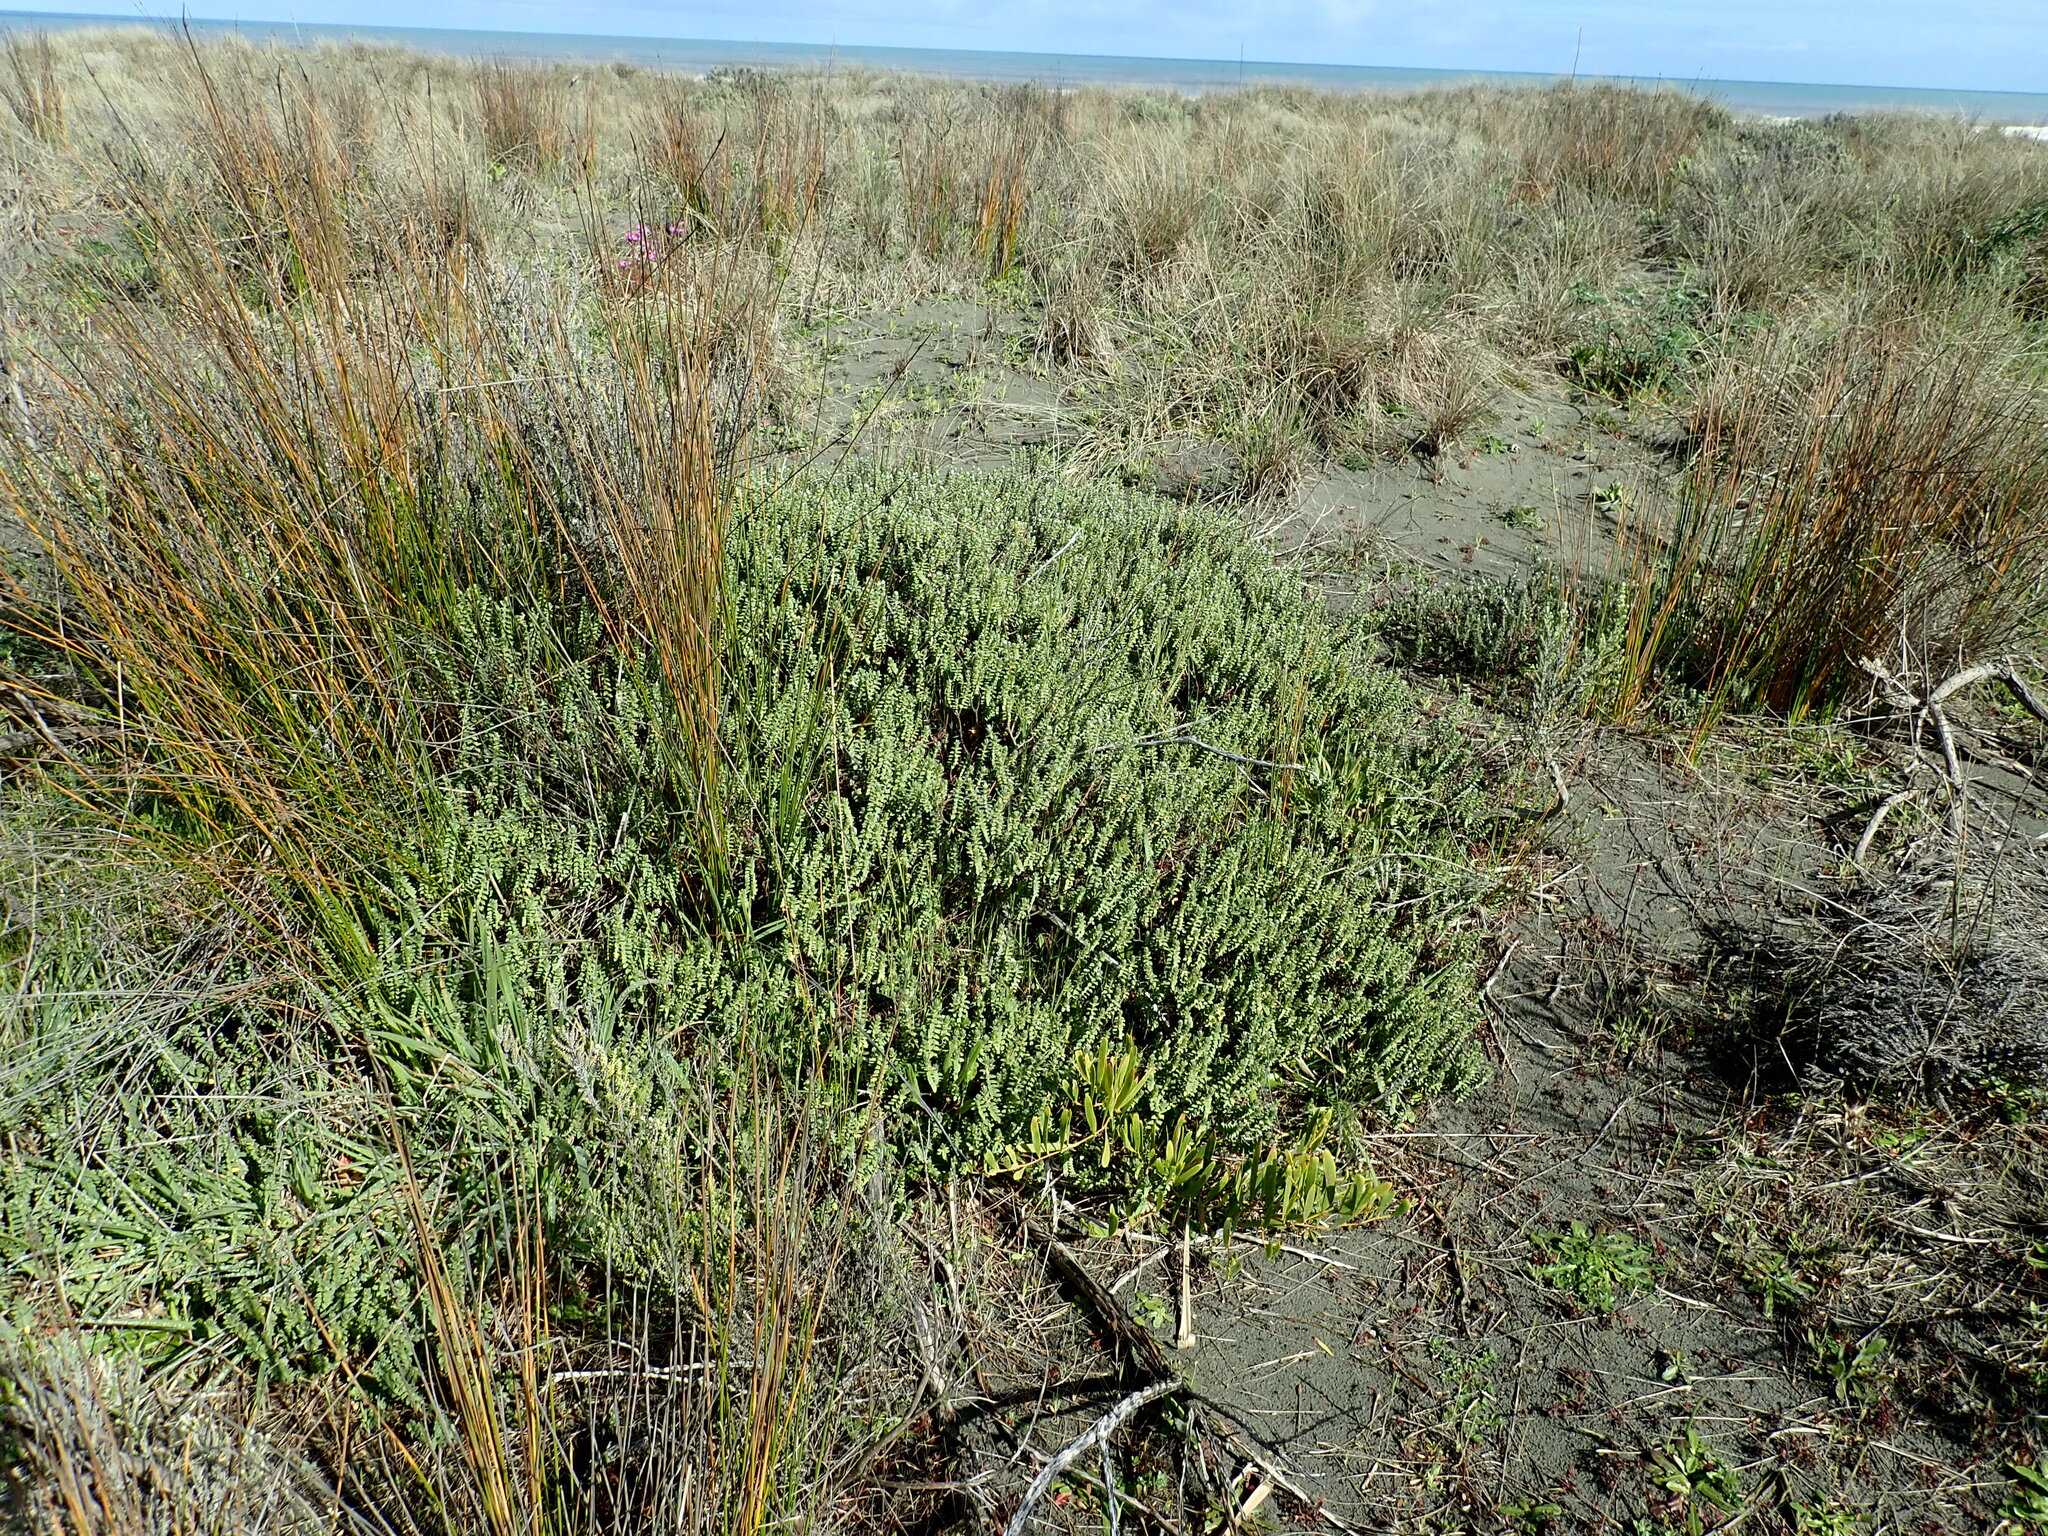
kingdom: Plantae
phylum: Tracheophyta
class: Magnoliopsida
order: Fabales
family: Fabaceae
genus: Acacia
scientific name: Acacia longifolia
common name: Sydney golden wattle
